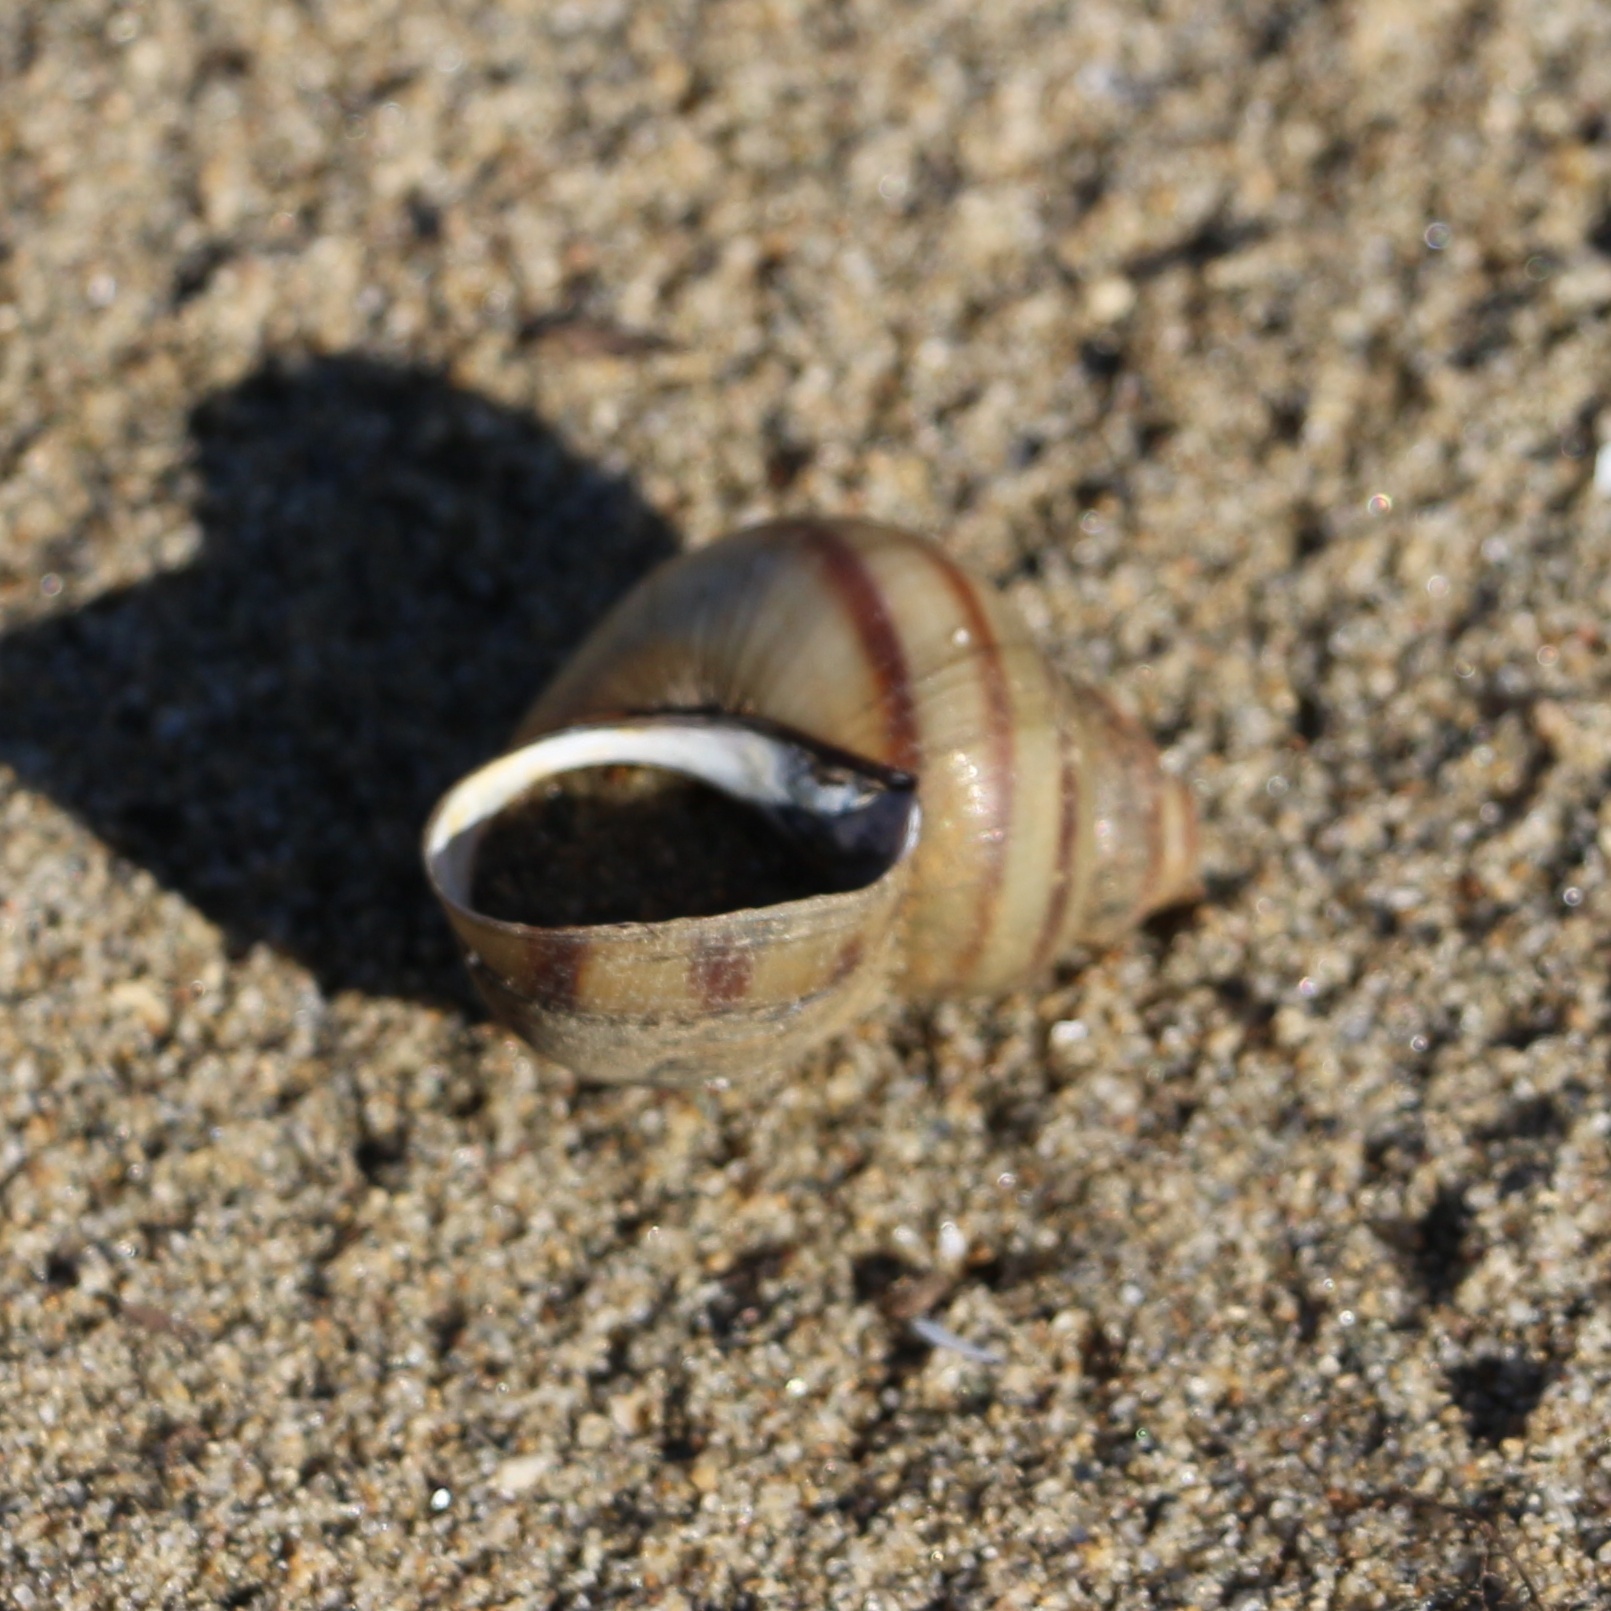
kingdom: Animalia
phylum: Mollusca
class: Gastropoda
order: Architaenioglossa
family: Viviparidae
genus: Viviparus
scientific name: Viviparus viviparus
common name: River snail
